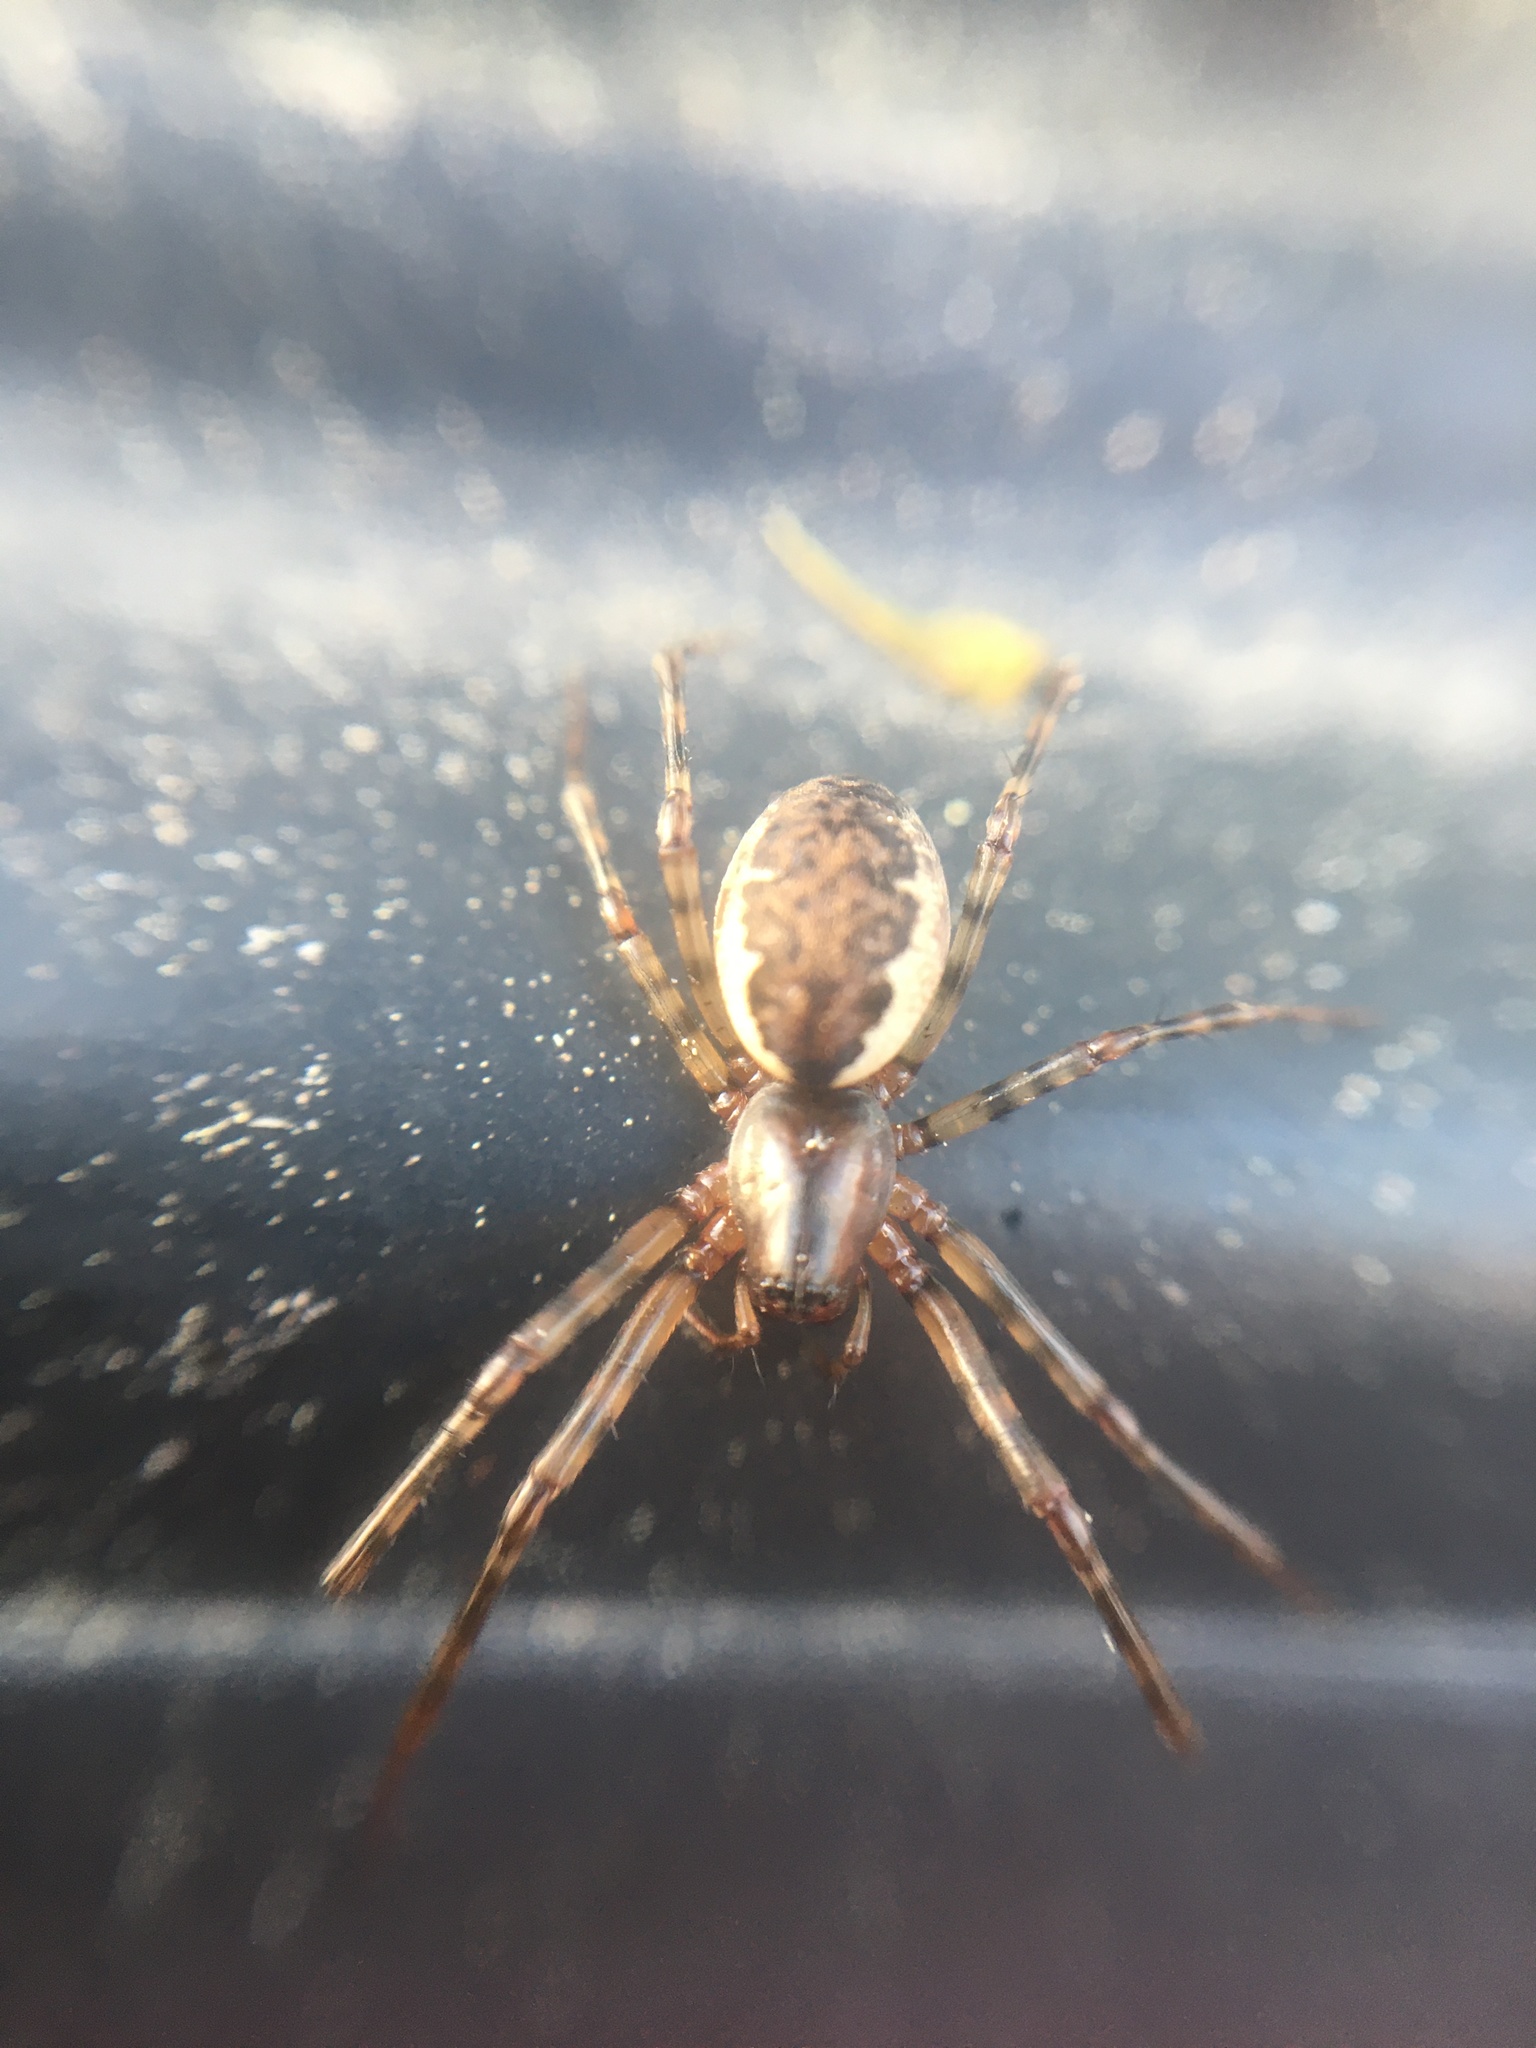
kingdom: Animalia
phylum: Arthropoda
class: Arachnida
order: Araneae
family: Linyphiidae
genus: Neriene
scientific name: Neriene montana
